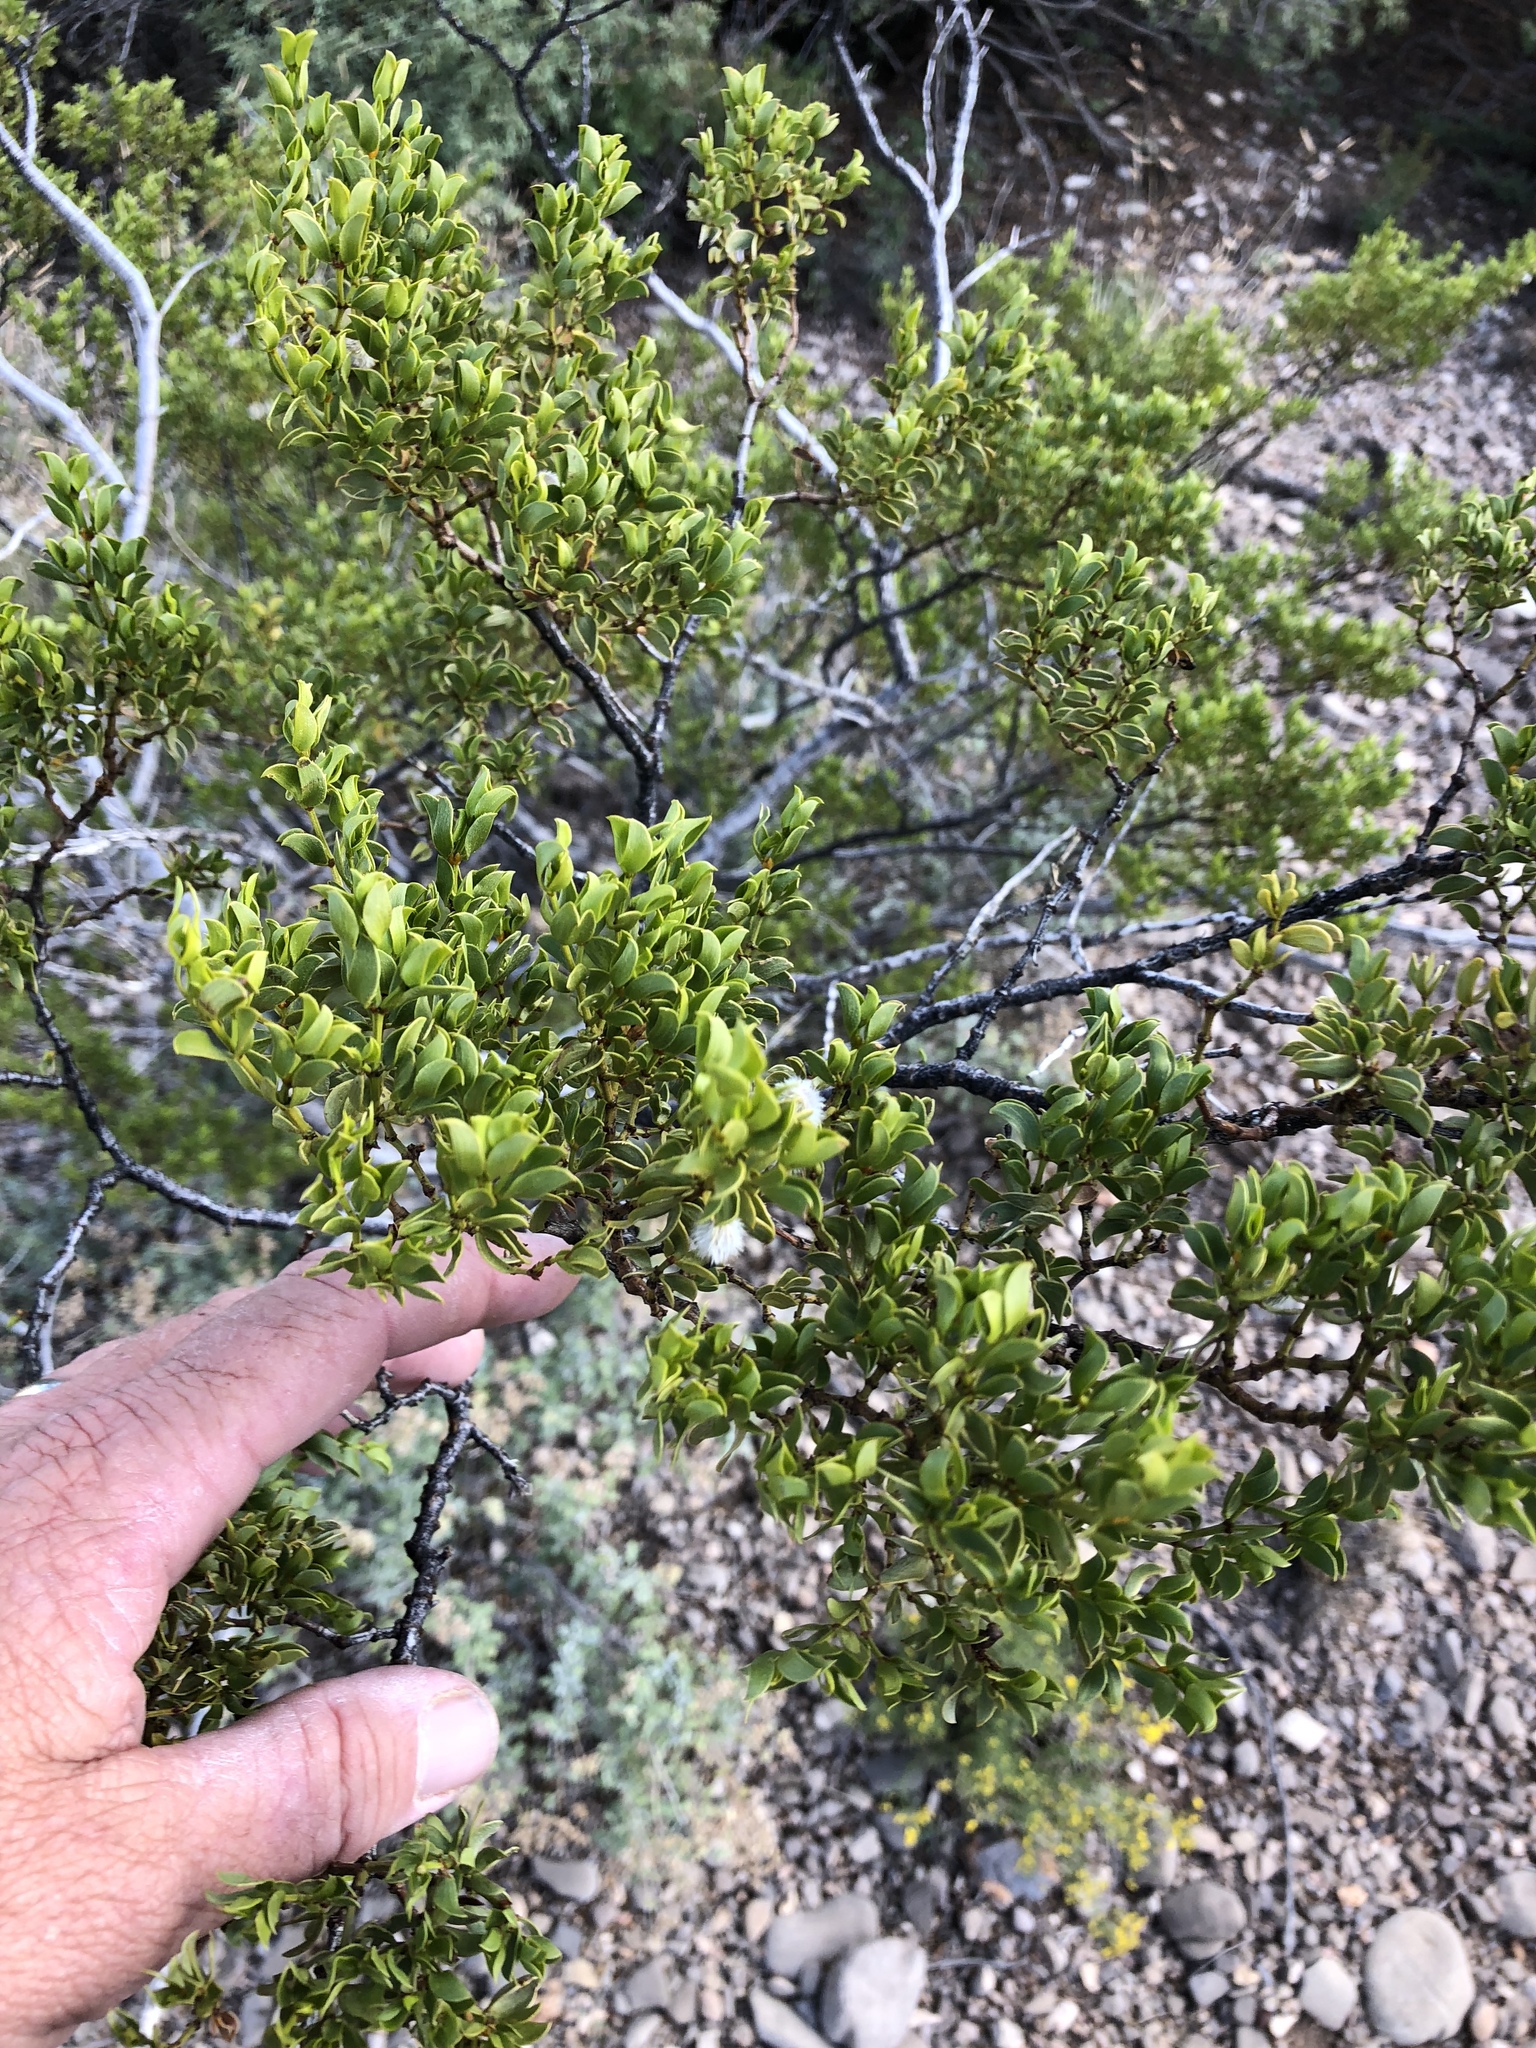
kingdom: Plantae
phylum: Tracheophyta
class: Magnoliopsida
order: Zygophyllales
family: Zygophyllaceae
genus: Larrea
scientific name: Larrea tridentata
